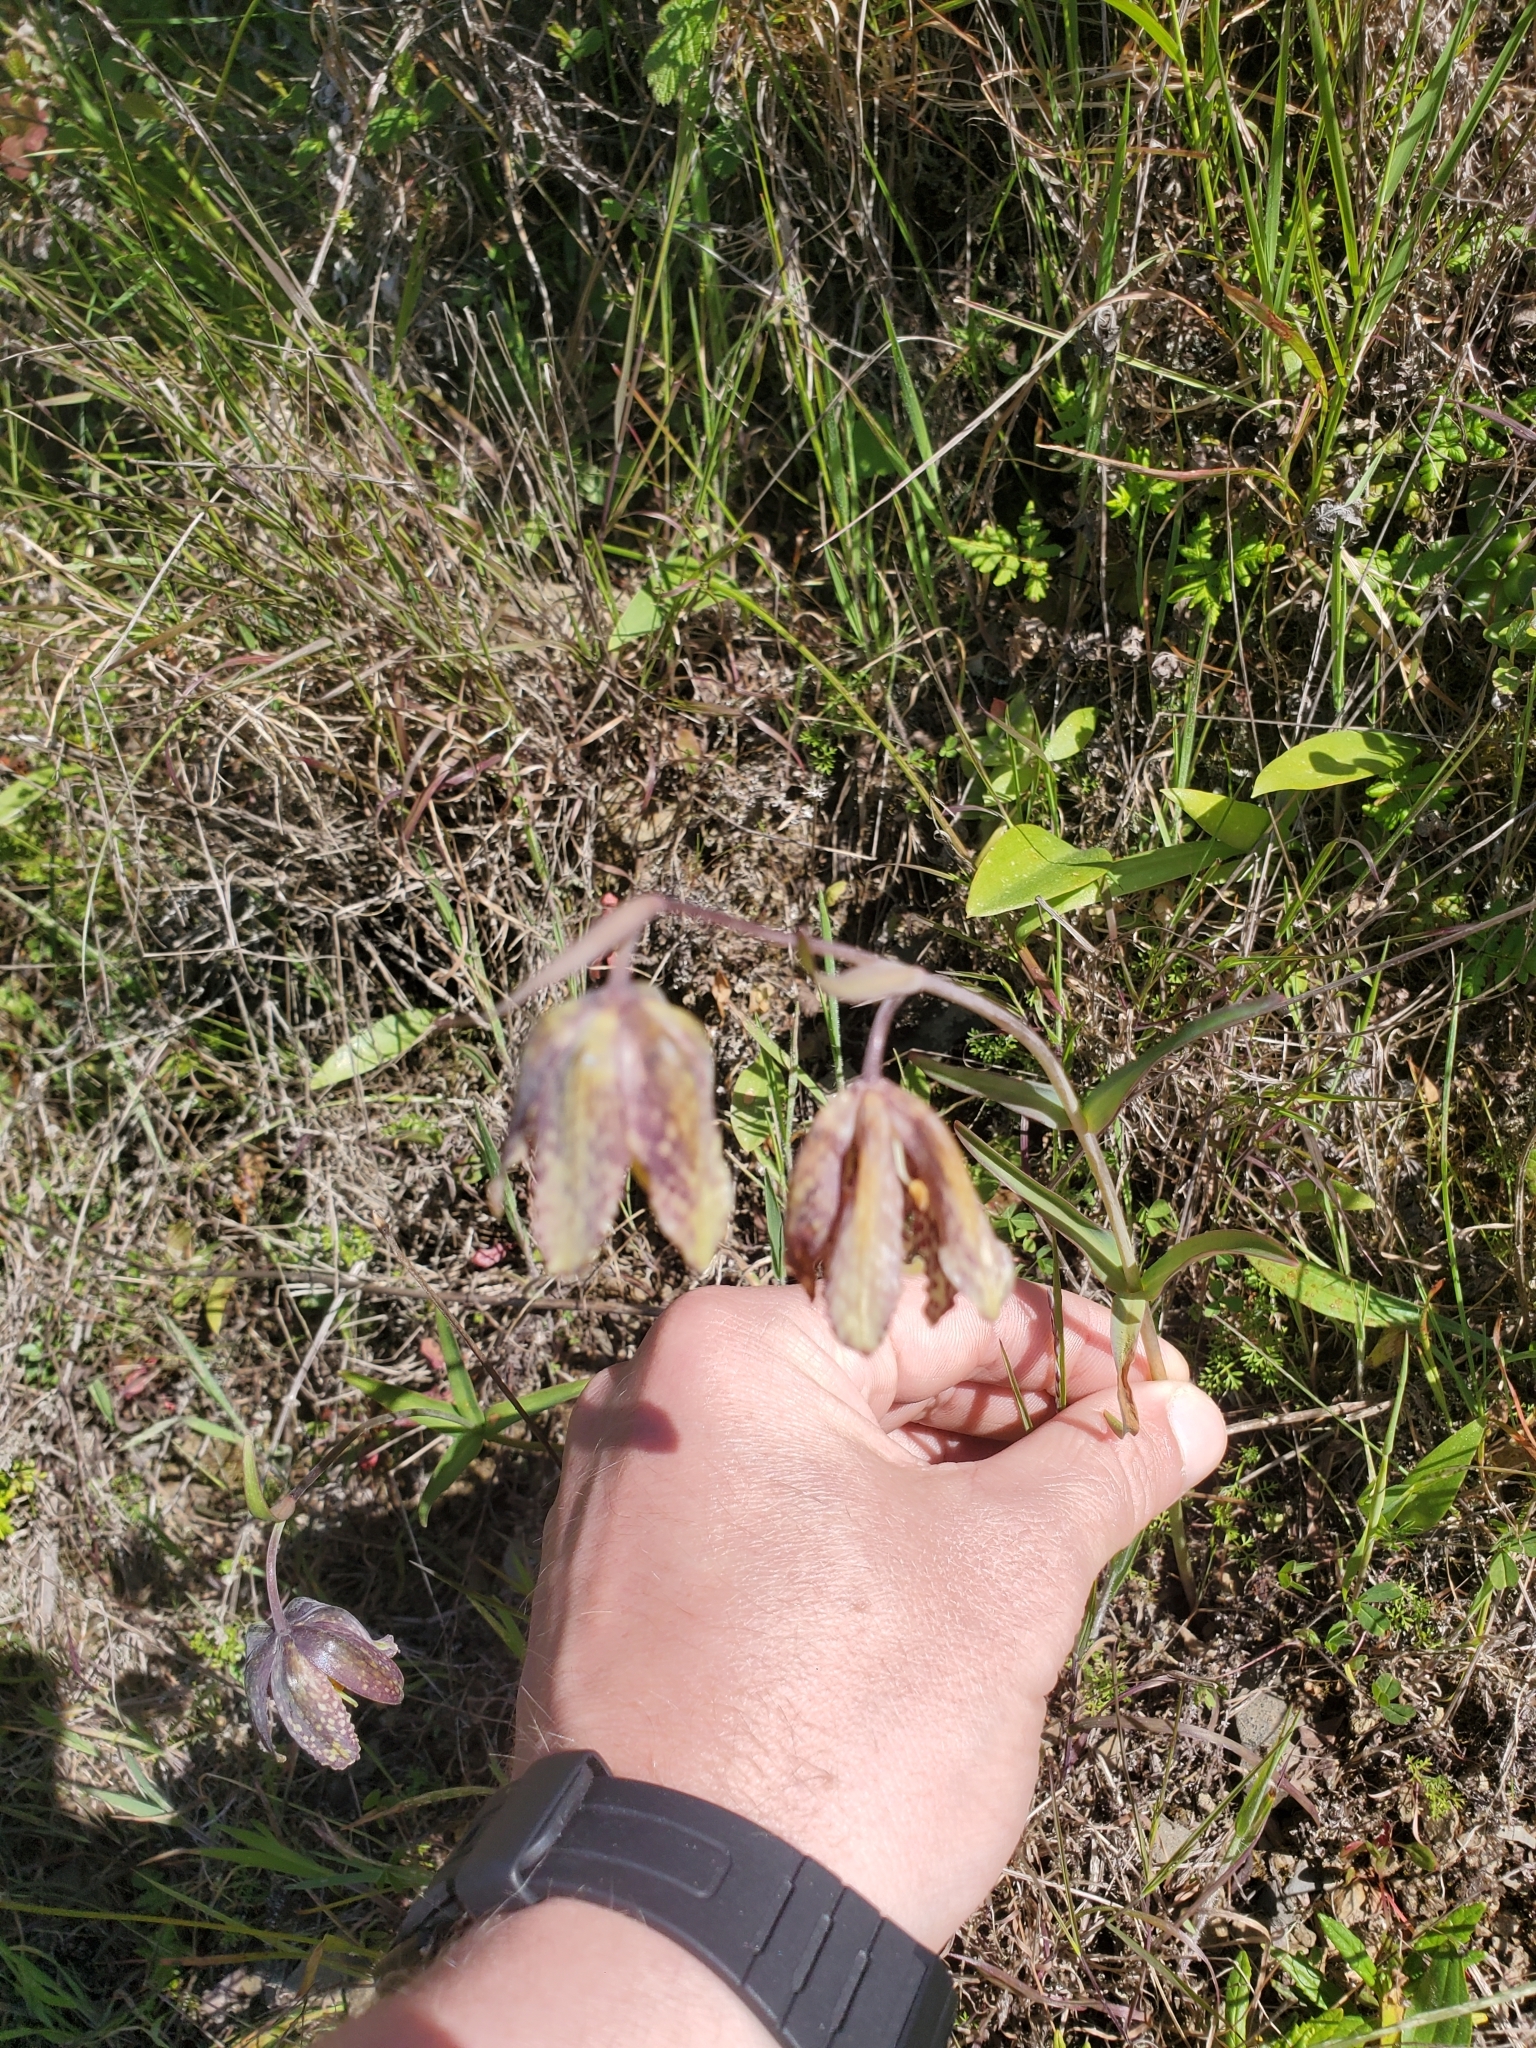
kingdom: Plantae
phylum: Tracheophyta
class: Liliopsida
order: Liliales
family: Liliaceae
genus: Fritillaria
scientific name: Fritillaria affinis
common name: Ojai fritillary
